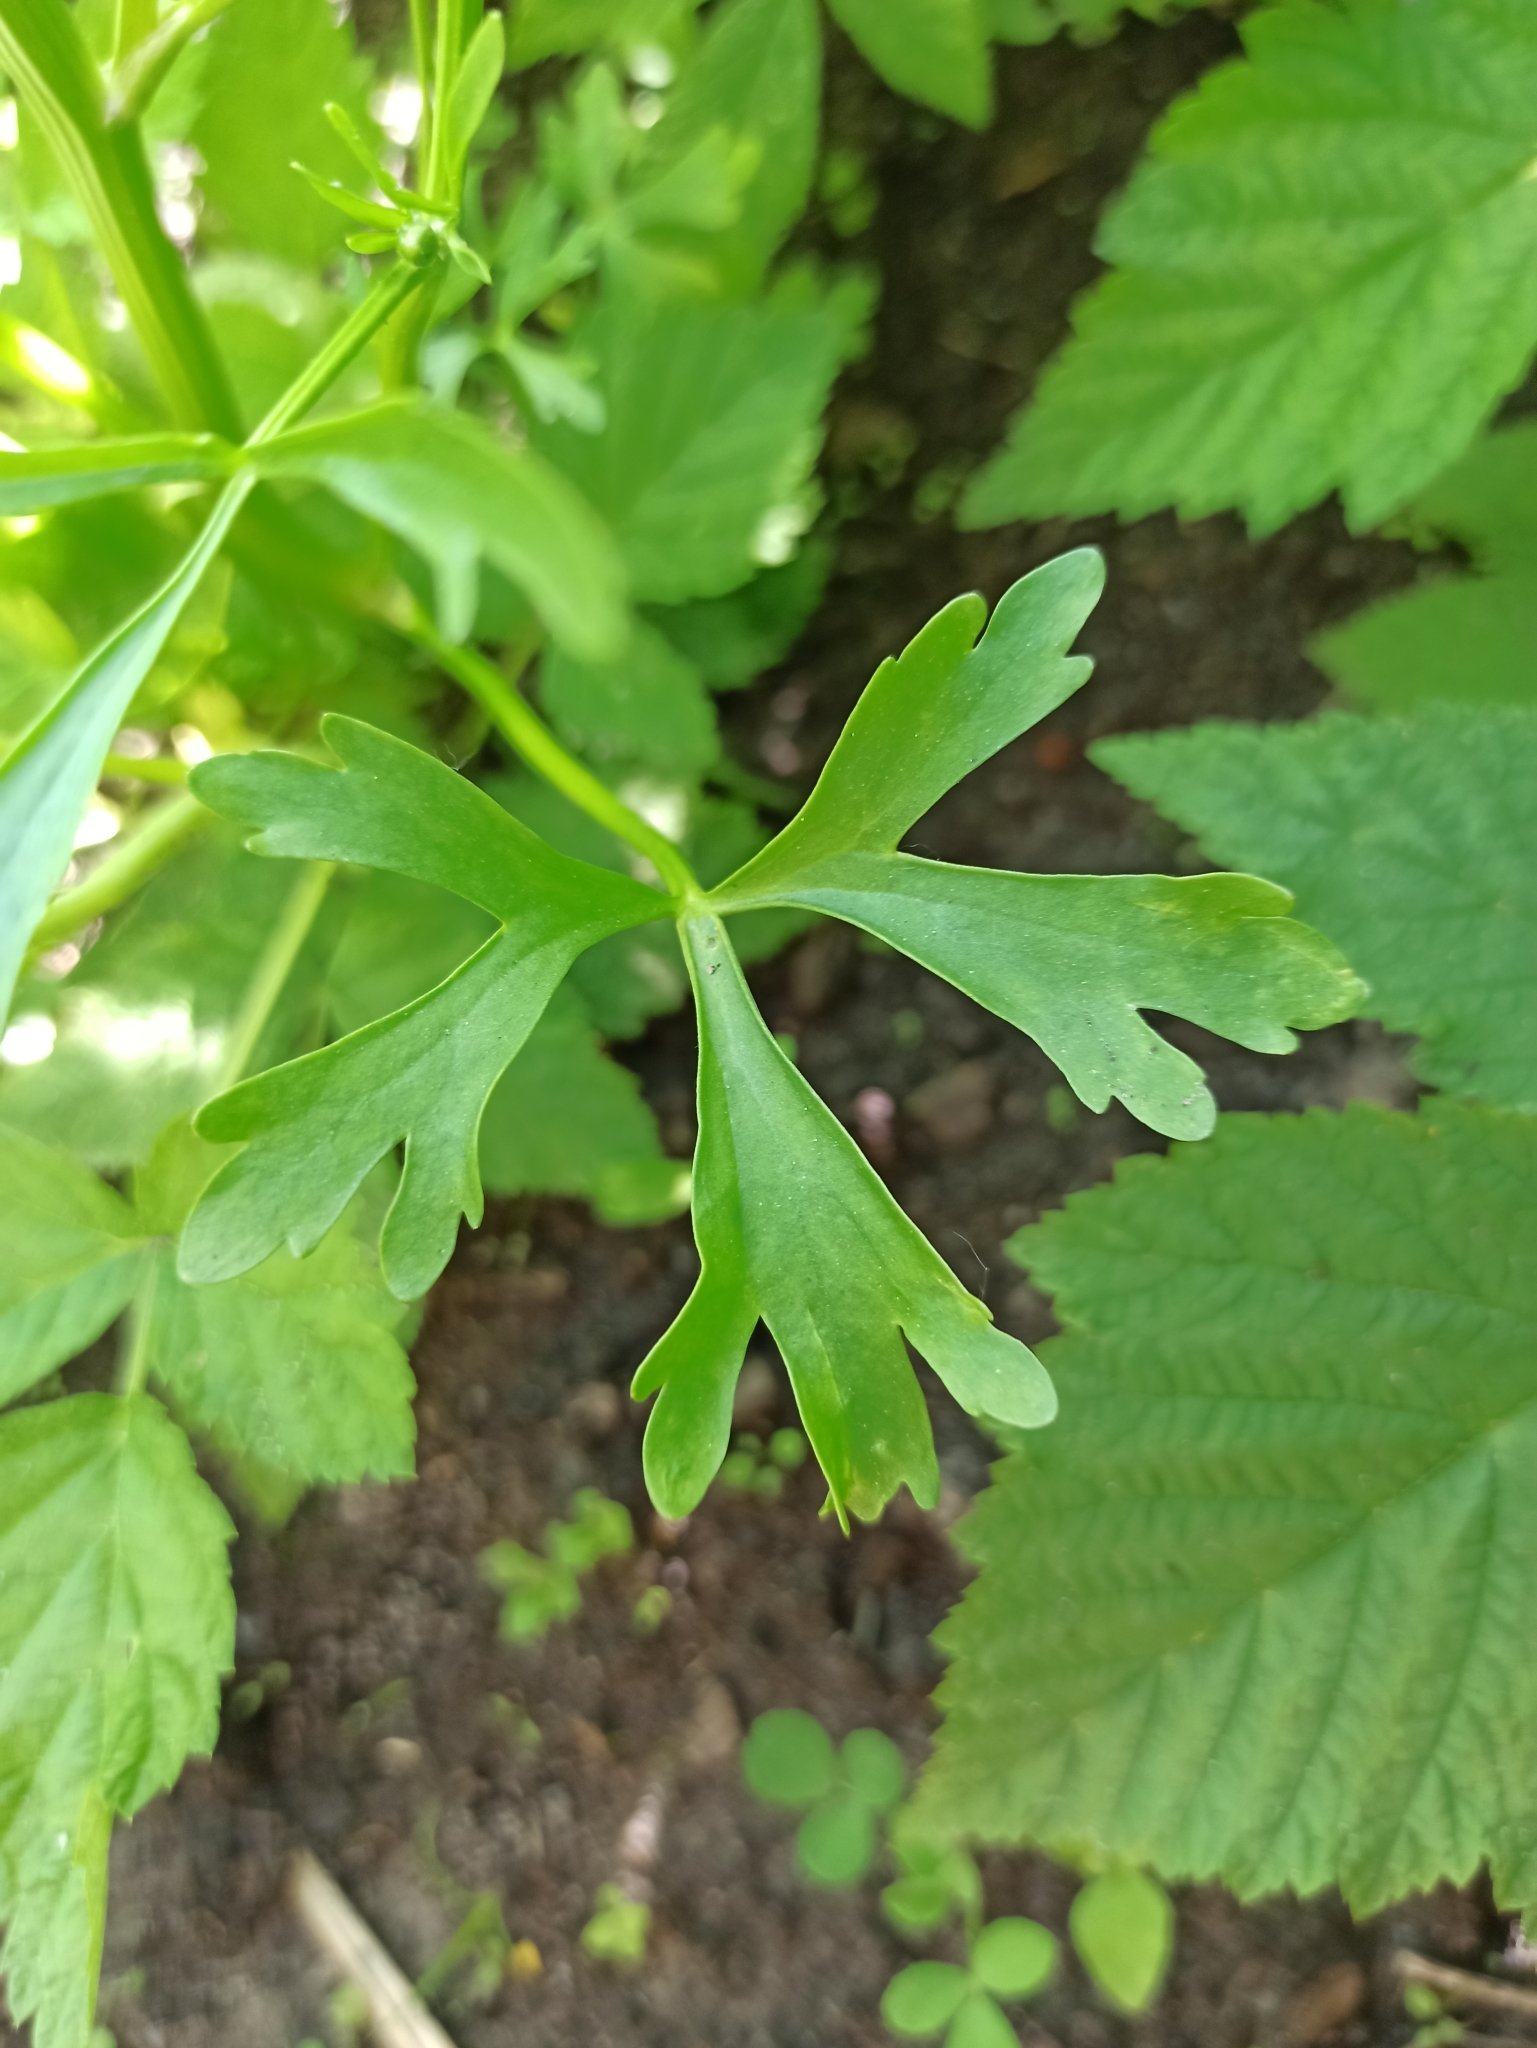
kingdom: Plantae
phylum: Tracheophyta
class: Magnoliopsida
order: Ranunculales
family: Ranunculaceae
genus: Ranunculus
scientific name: Ranunculus sceleratus
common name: Celery-leaved buttercup
